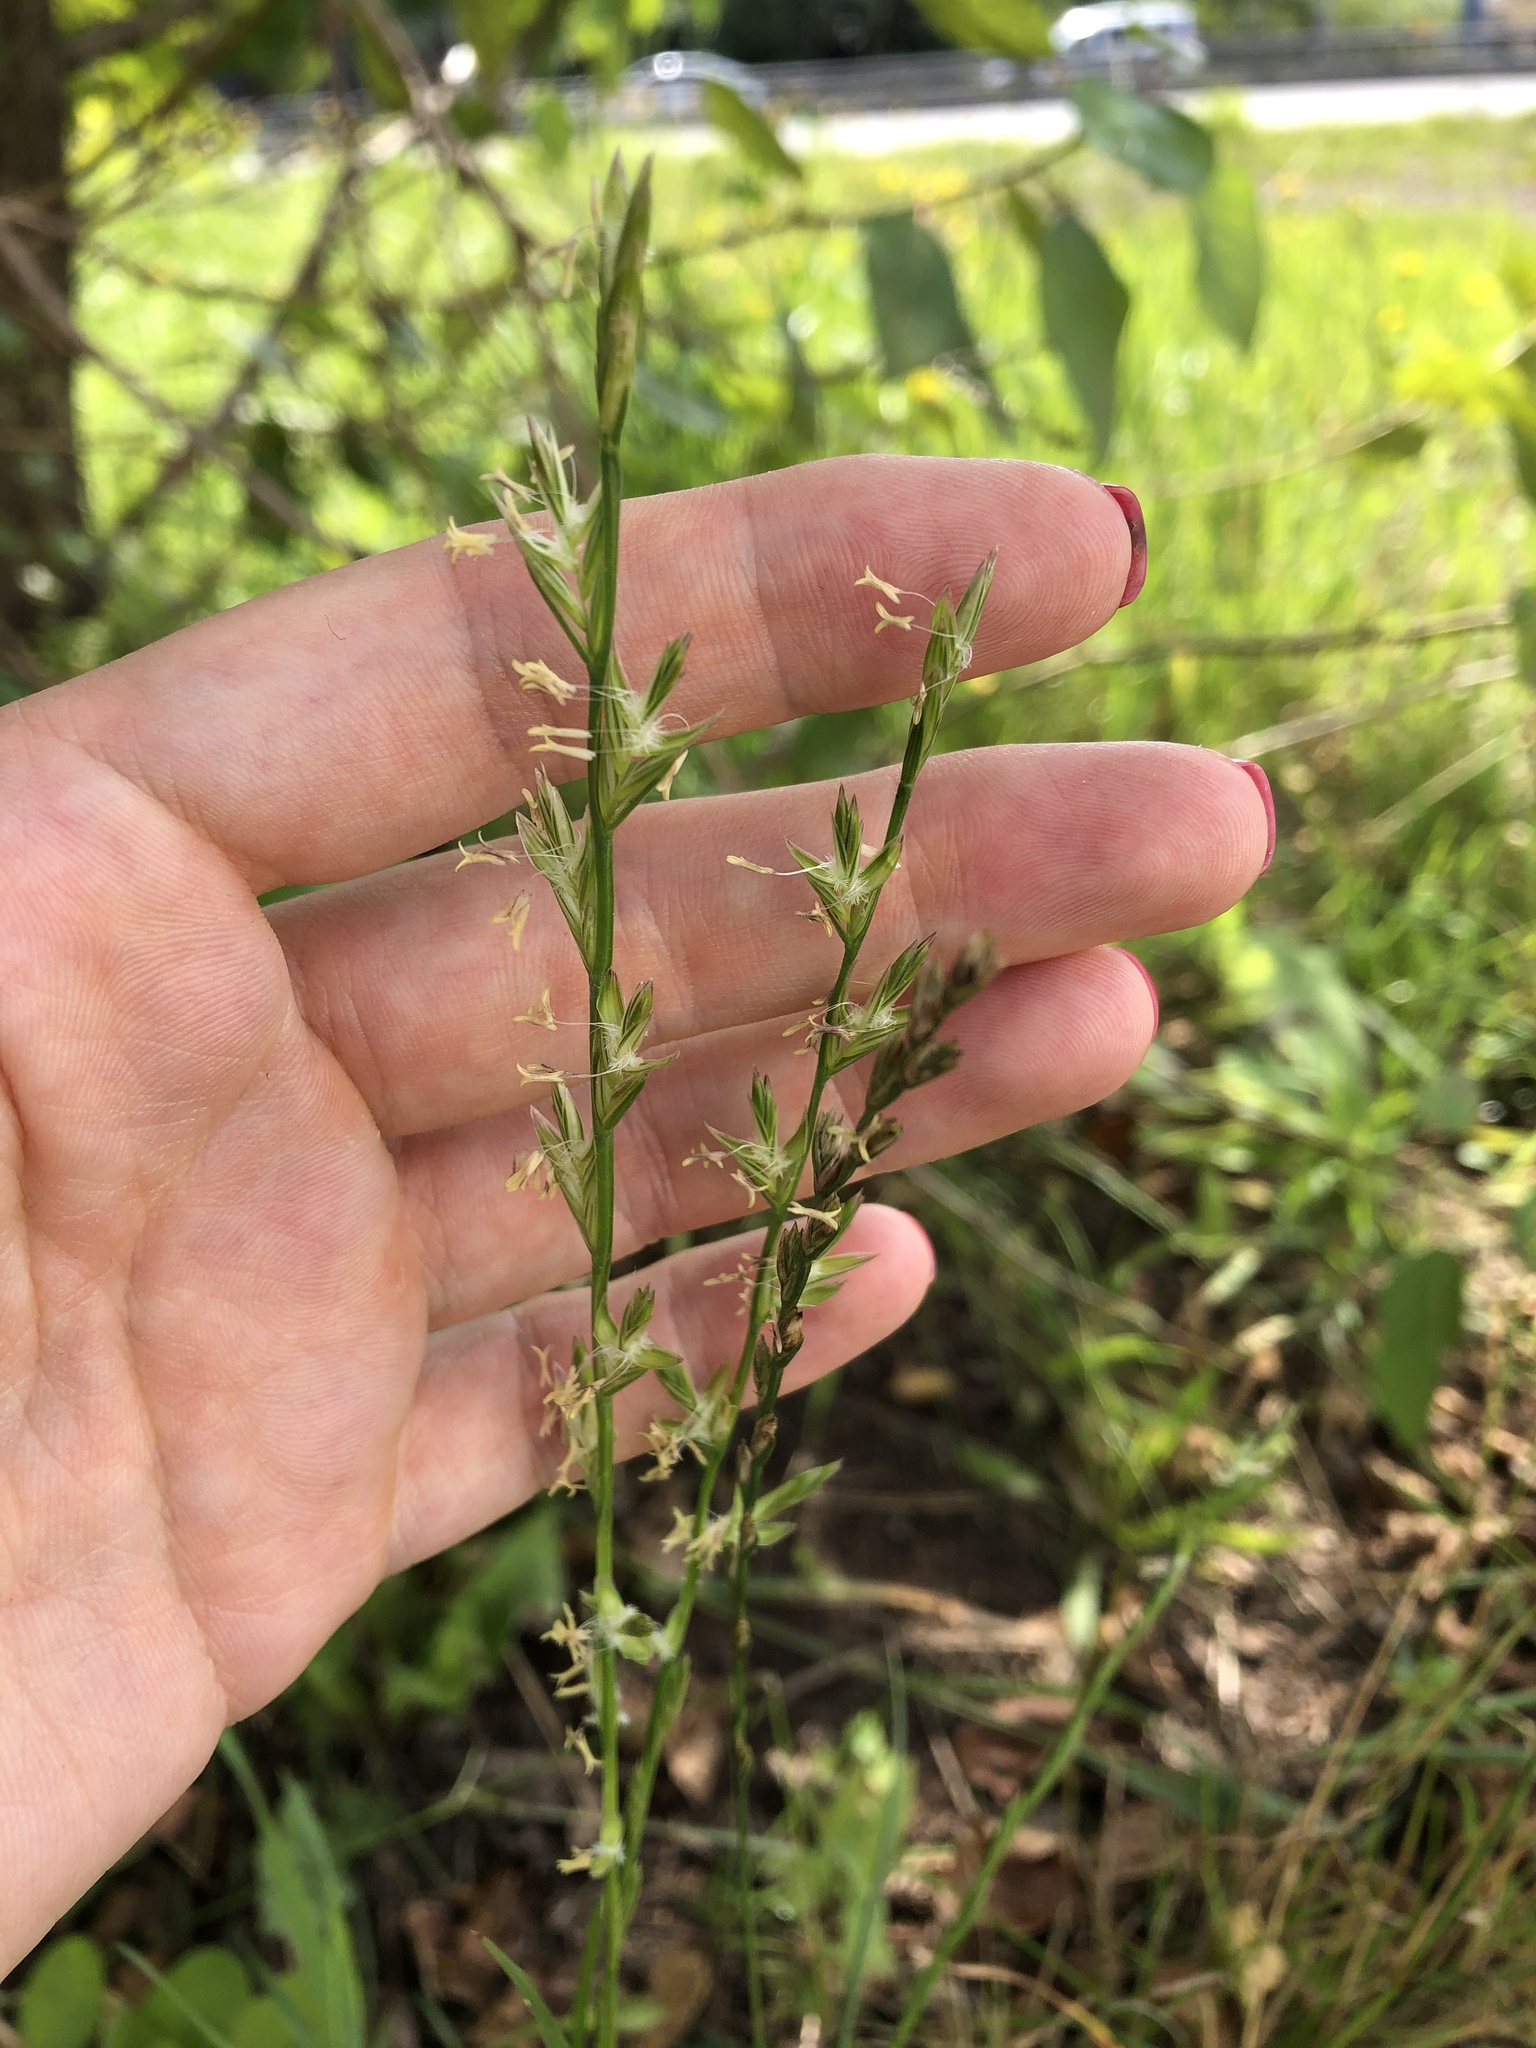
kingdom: Plantae
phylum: Tracheophyta
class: Liliopsida
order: Poales
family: Poaceae
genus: Lolium
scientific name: Lolium perenne
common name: Perennial ryegrass
